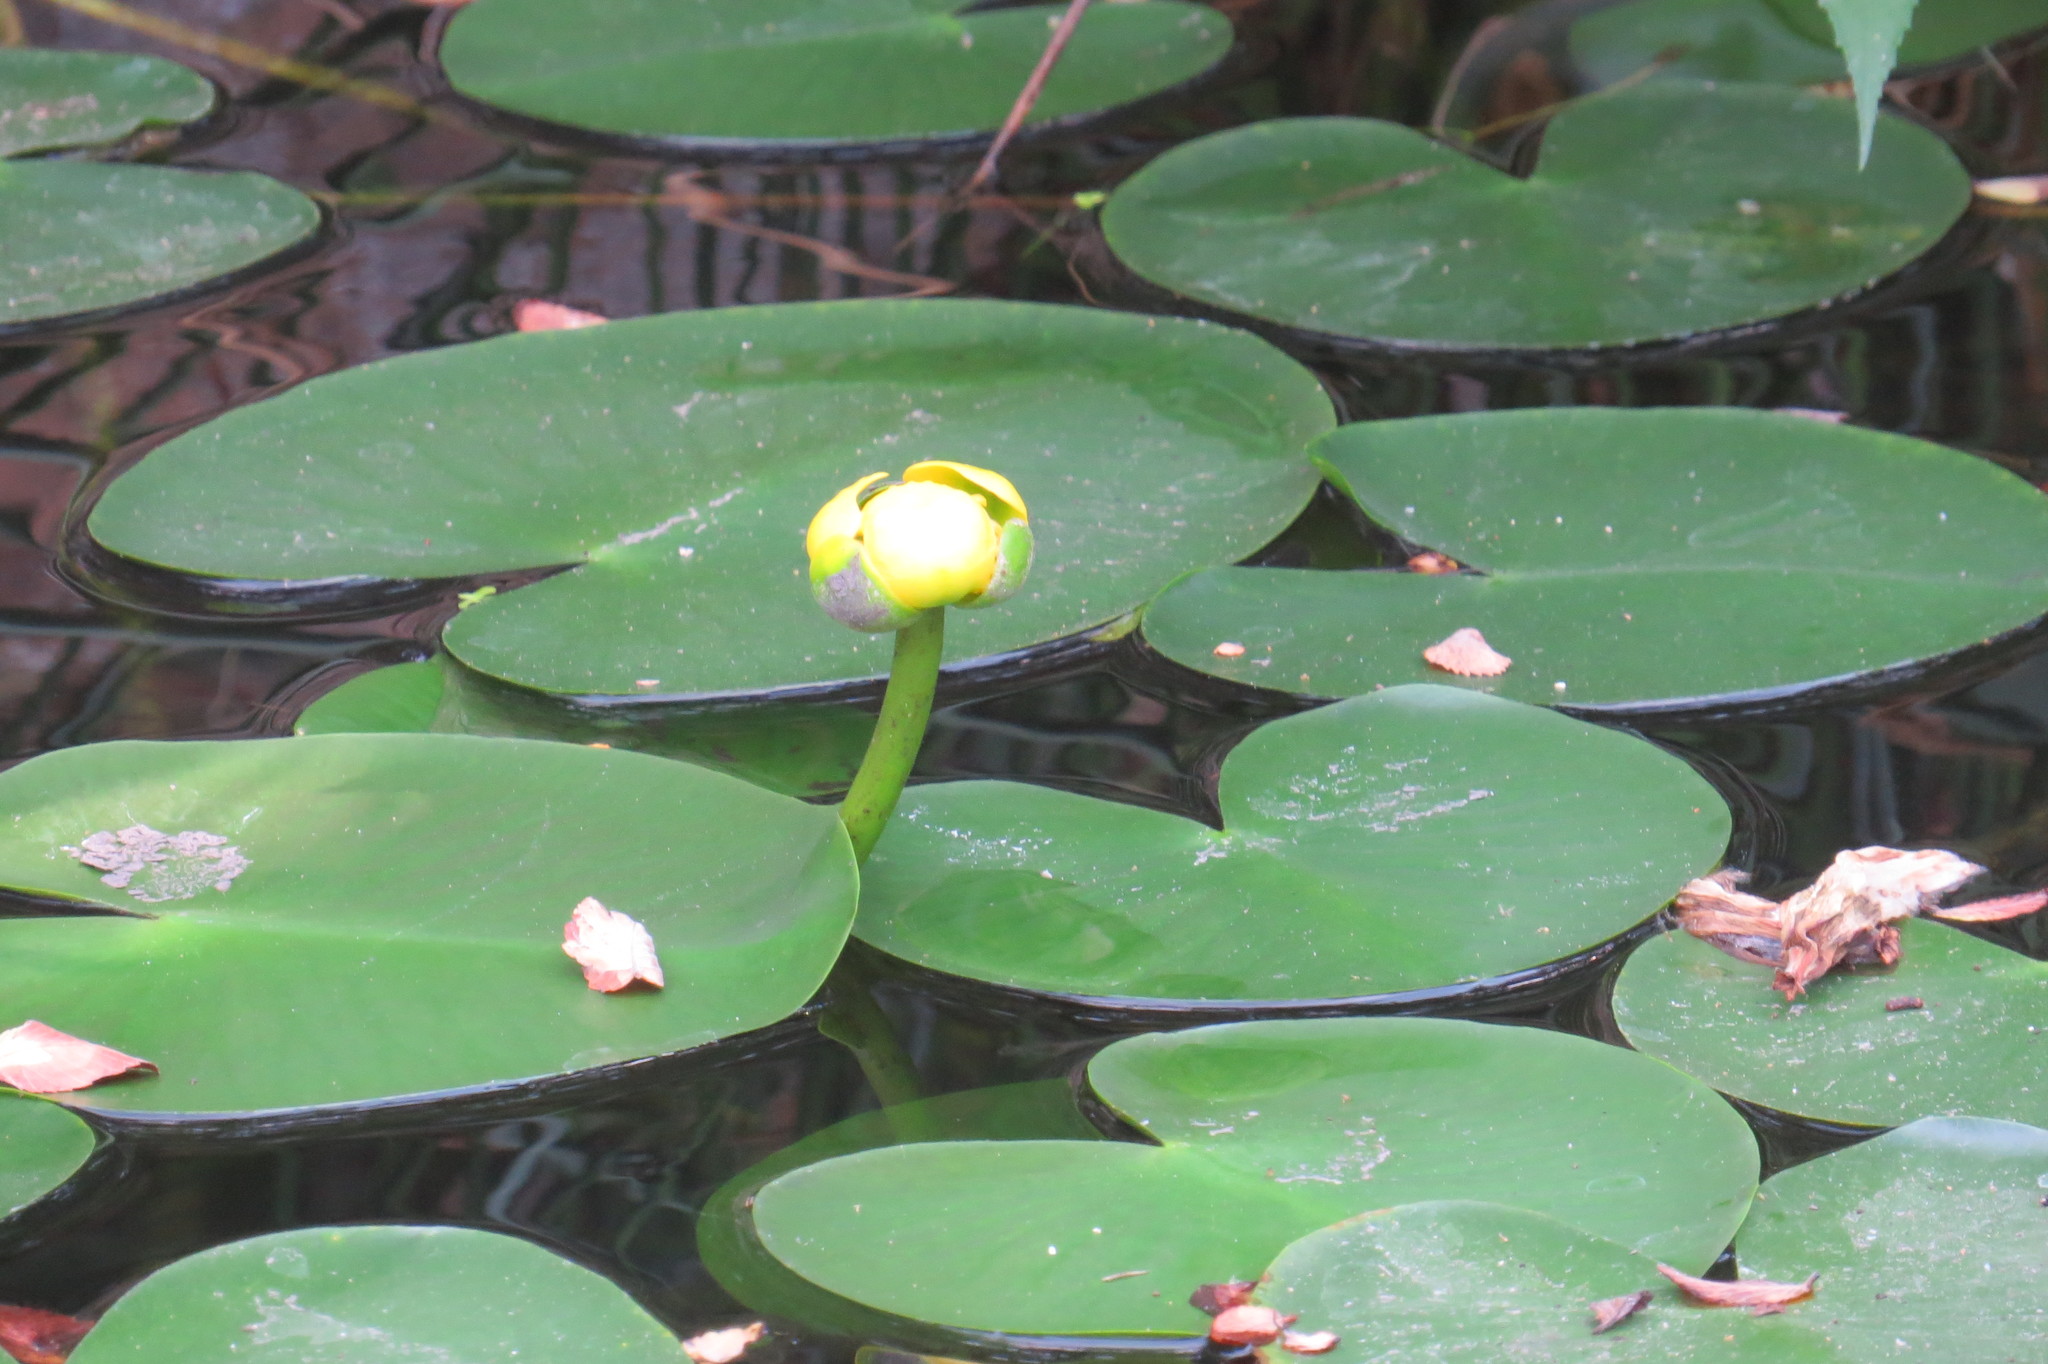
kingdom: Plantae
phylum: Tracheophyta
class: Magnoliopsida
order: Nymphaeales
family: Nymphaeaceae
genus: Nuphar
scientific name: Nuphar advena
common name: Spatter-dock
